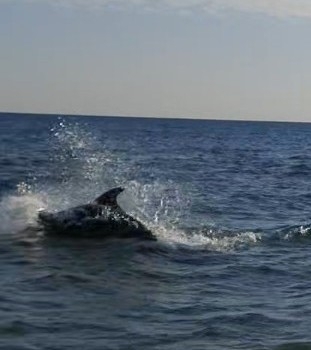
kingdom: Animalia
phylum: Chordata
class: Mammalia
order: Cetacea
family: Delphinidae
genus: Tursiops
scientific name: Tursiops truncatus
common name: Bottlenose dolphin
